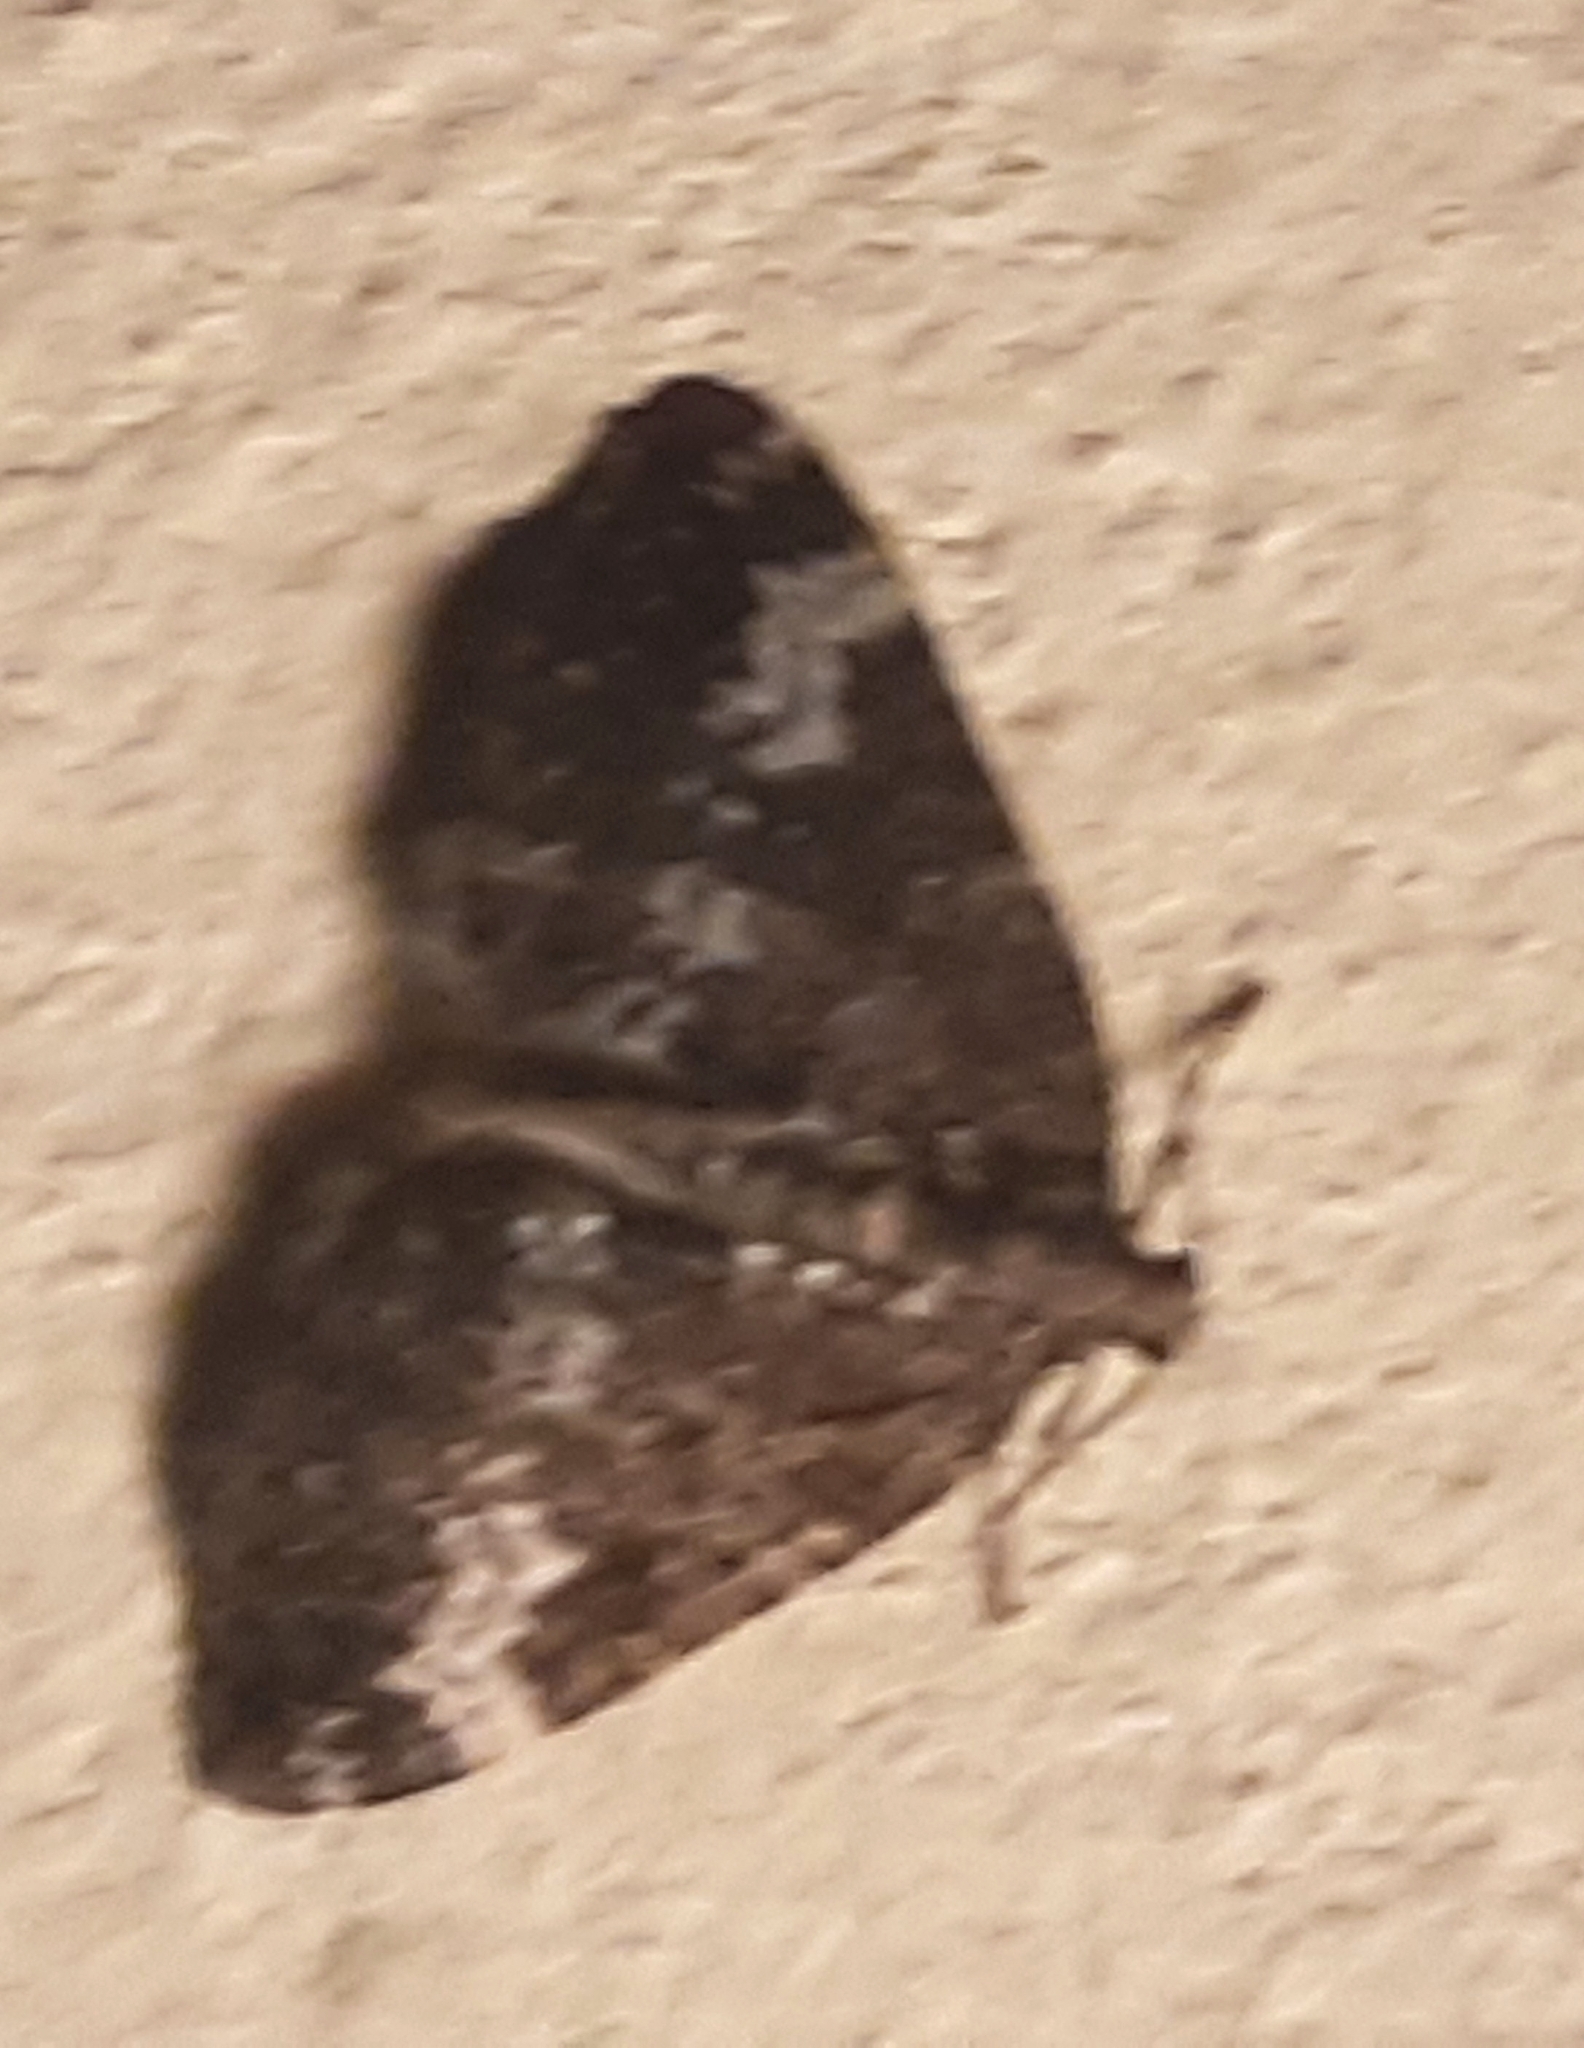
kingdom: Animalia
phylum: Arthropoda
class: Insecta
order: Lepidoptera
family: Geometridae
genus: Perizoma
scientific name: Perizoma alchemillata
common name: Small rivulet
